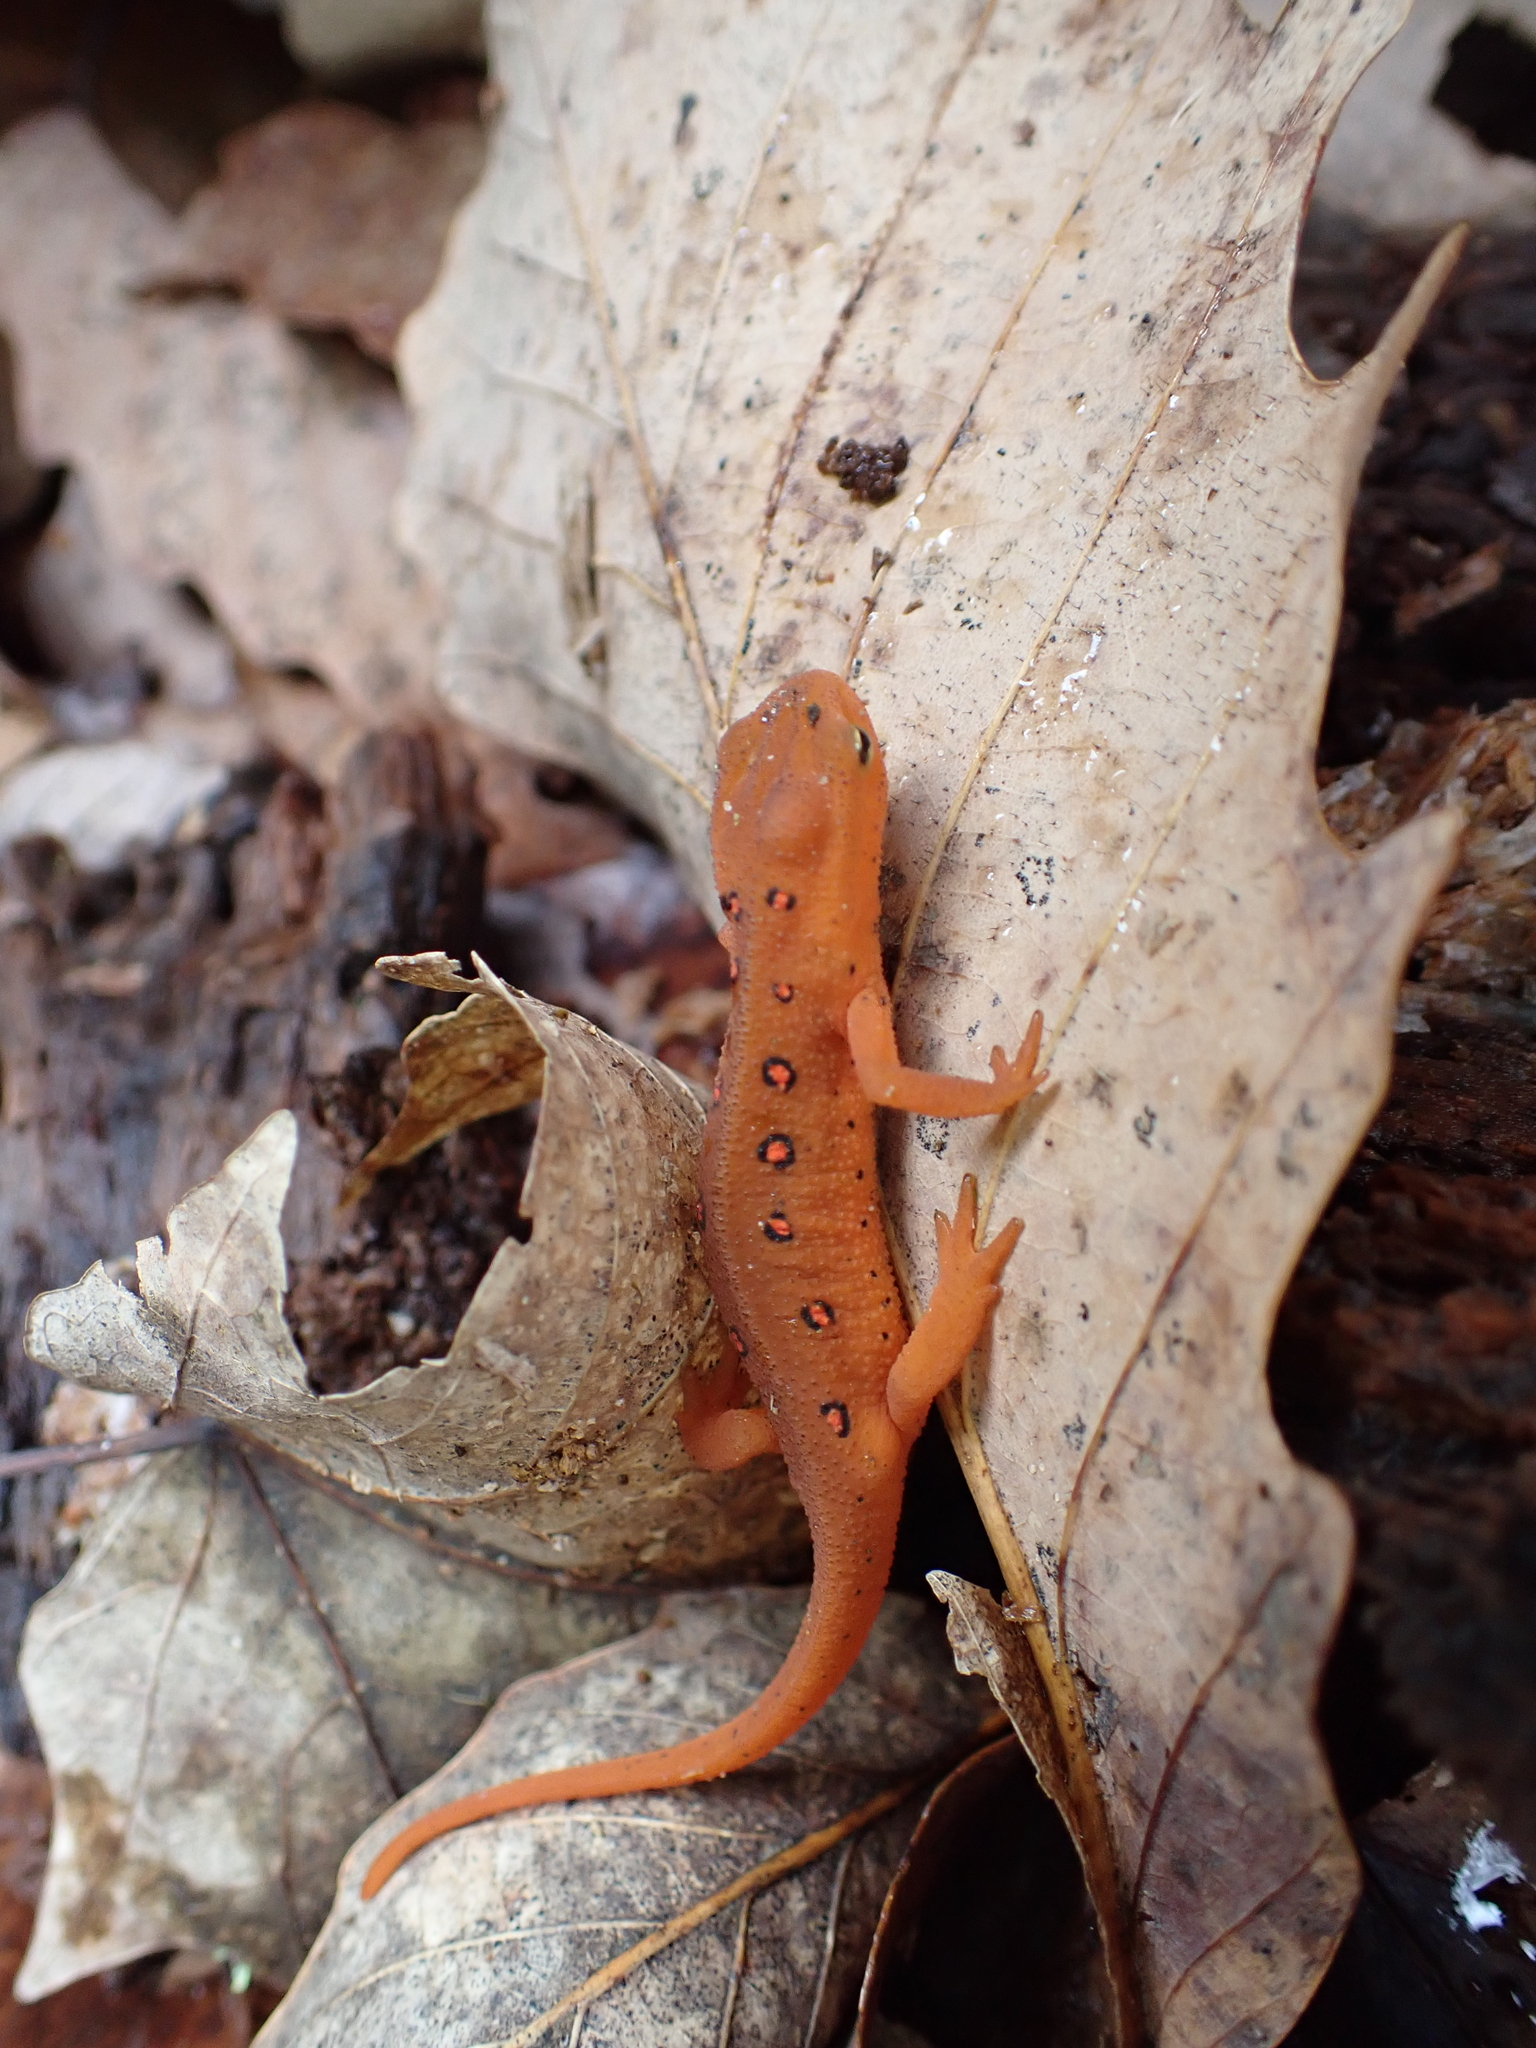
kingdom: Animalia
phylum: Chordata
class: Amphibia
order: Caudata
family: Salamandridae
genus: Notophthalmus
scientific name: Notophthalmus viridescens
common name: Eastern newt
